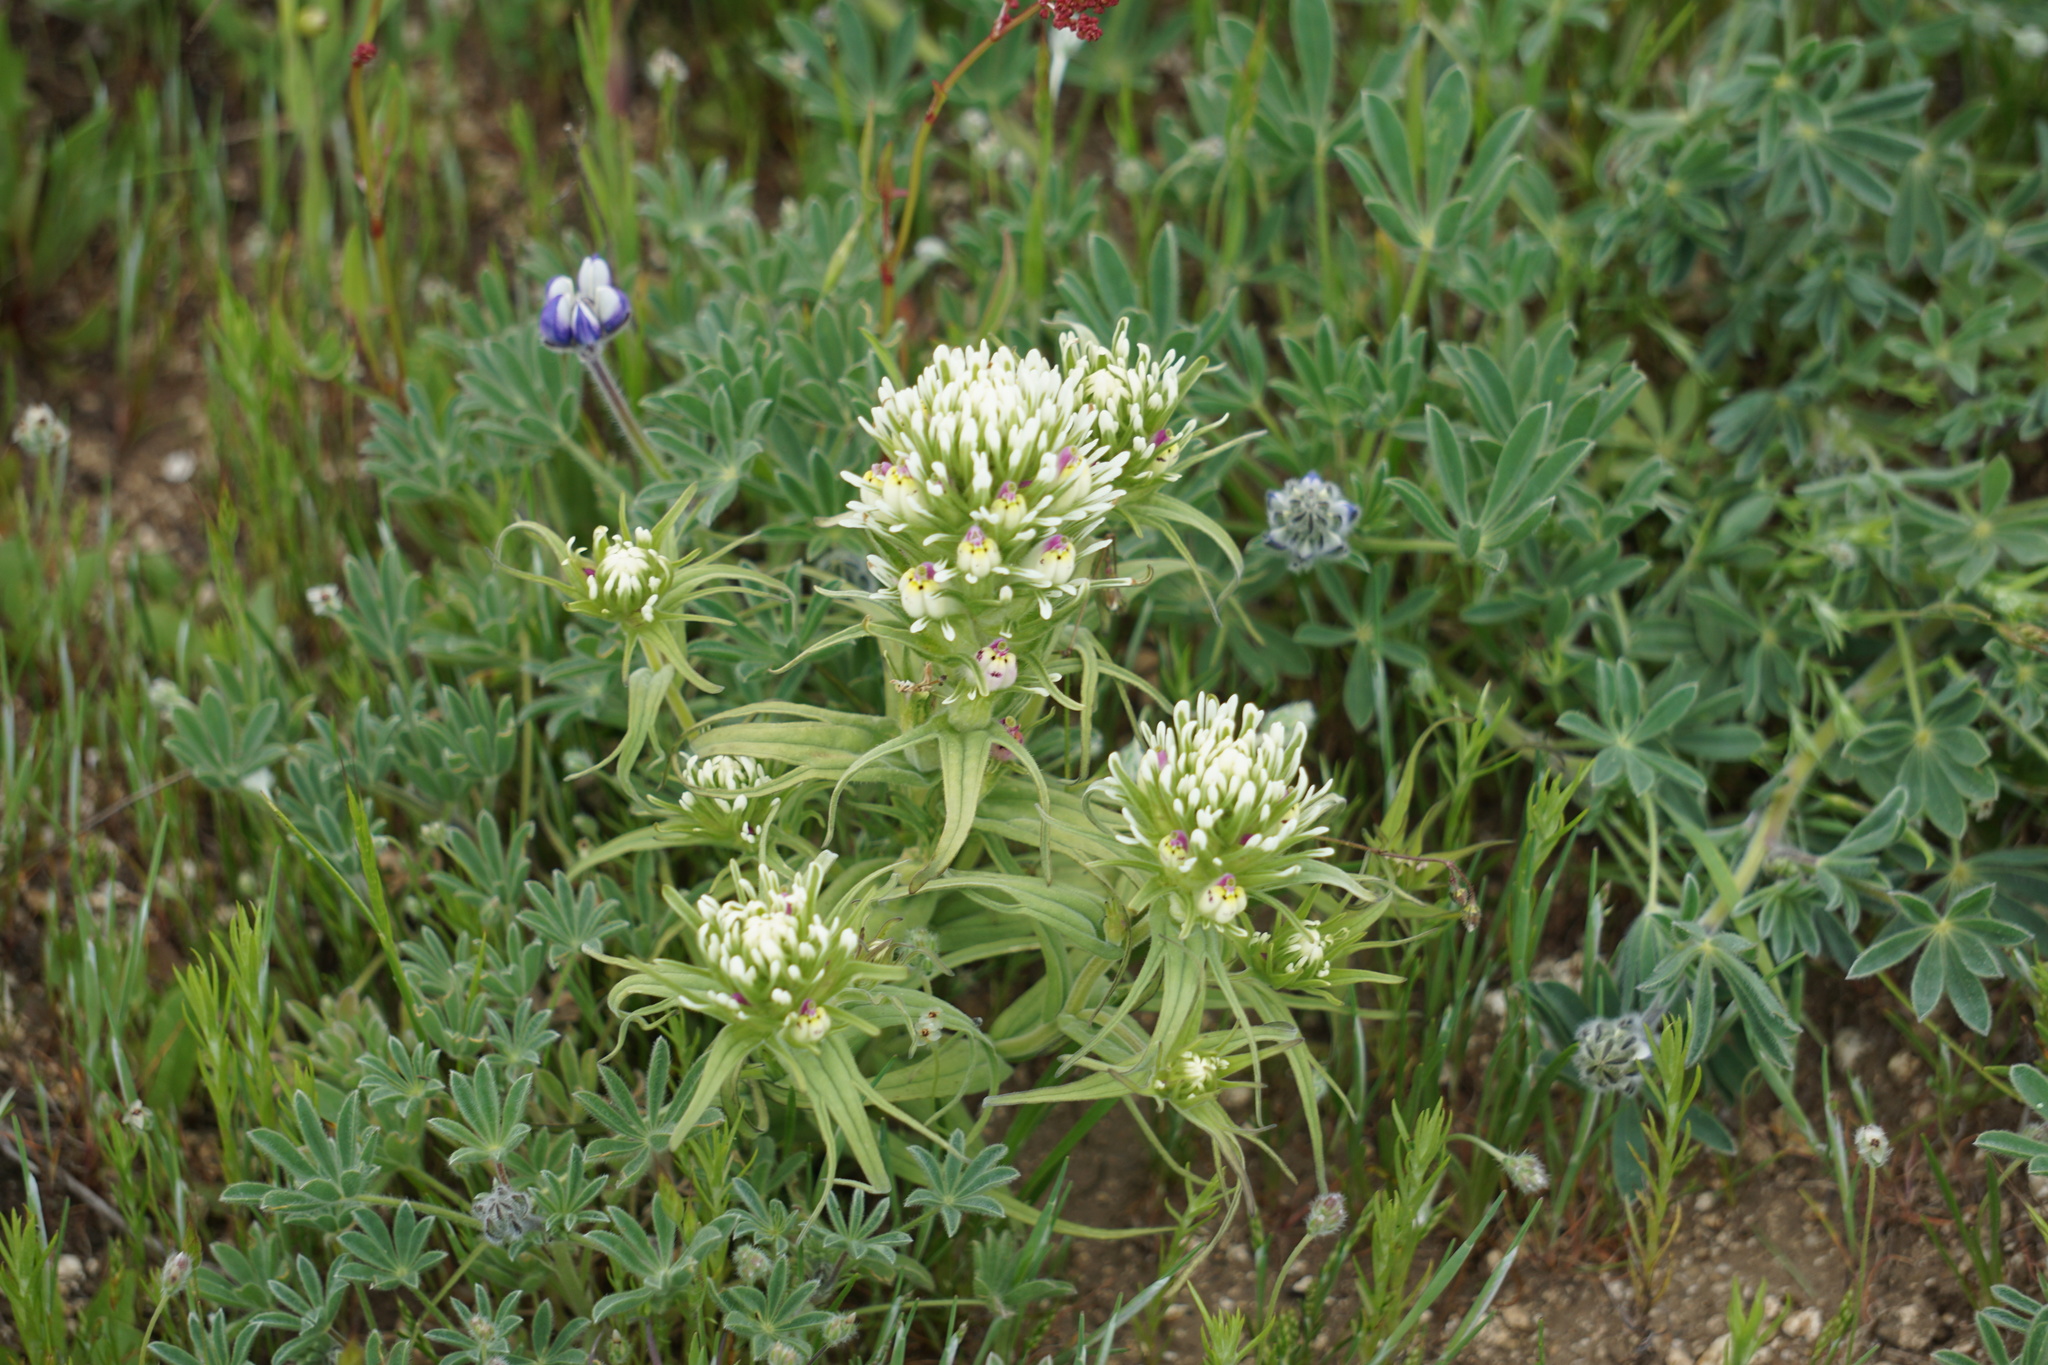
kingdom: Plantae
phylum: Tracheophyta
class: Magnoliopsida
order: Lamiales
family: Orobanchaceae
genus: Castilleja
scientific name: Castilleja densiflora
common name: Dense-flower indian paintbrush
